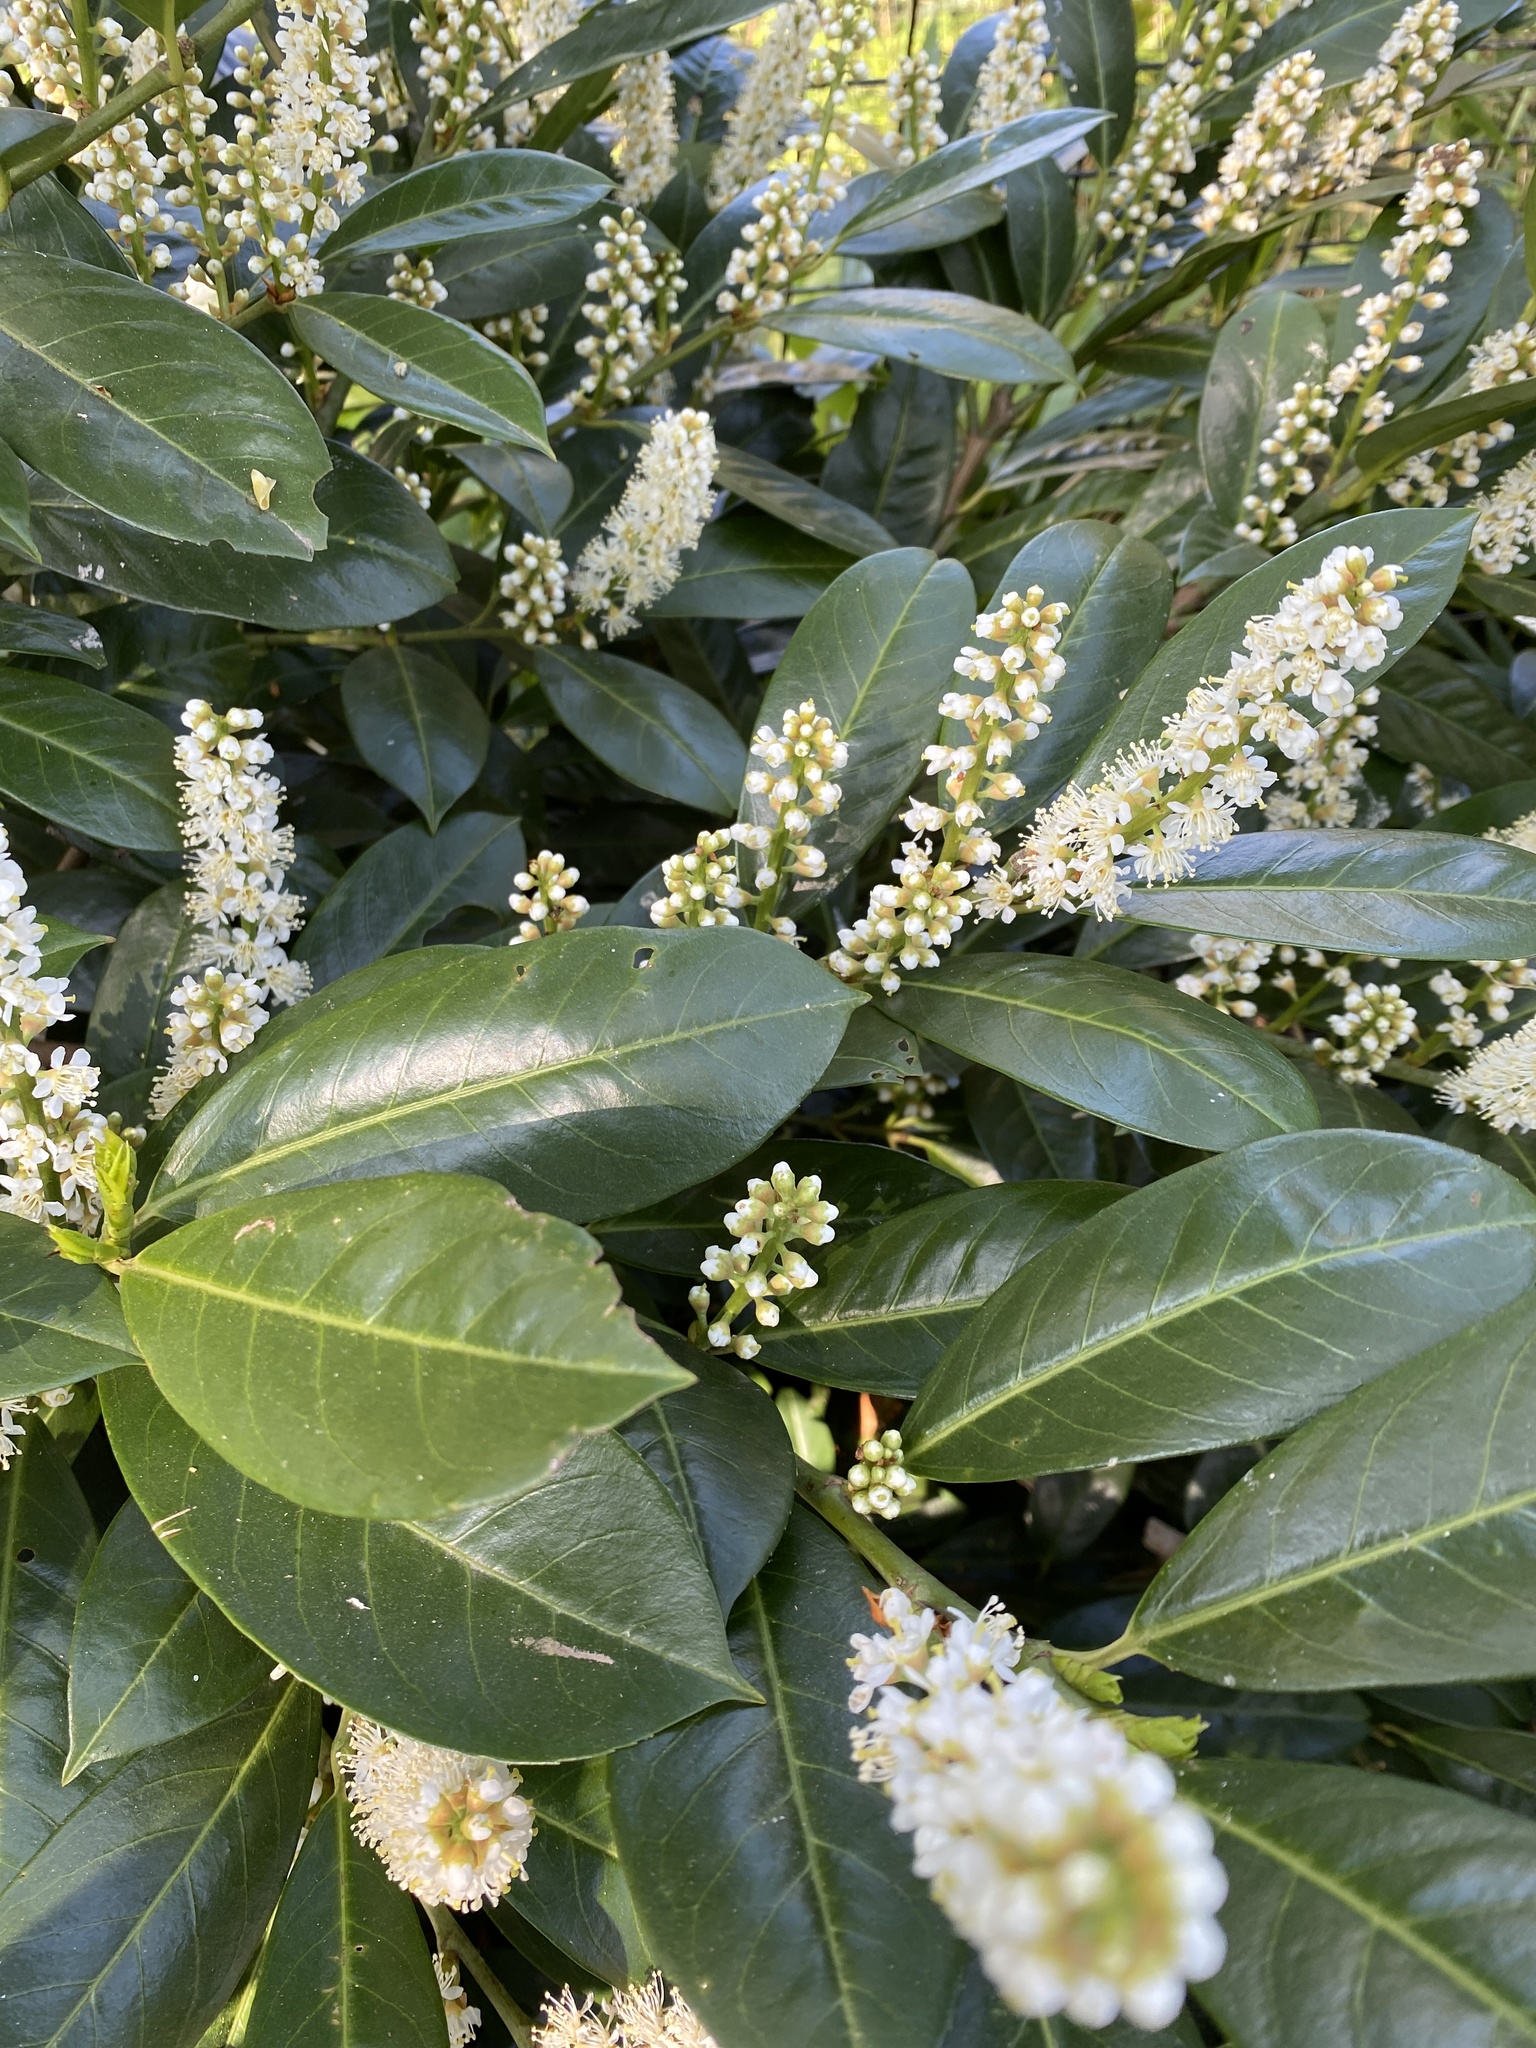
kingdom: Plantae
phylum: Tracheophyta
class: Magnoliopsida
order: Rosales
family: Rosaceae
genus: Prunus
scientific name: Prunus laurocerasus
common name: Cherry laurel
